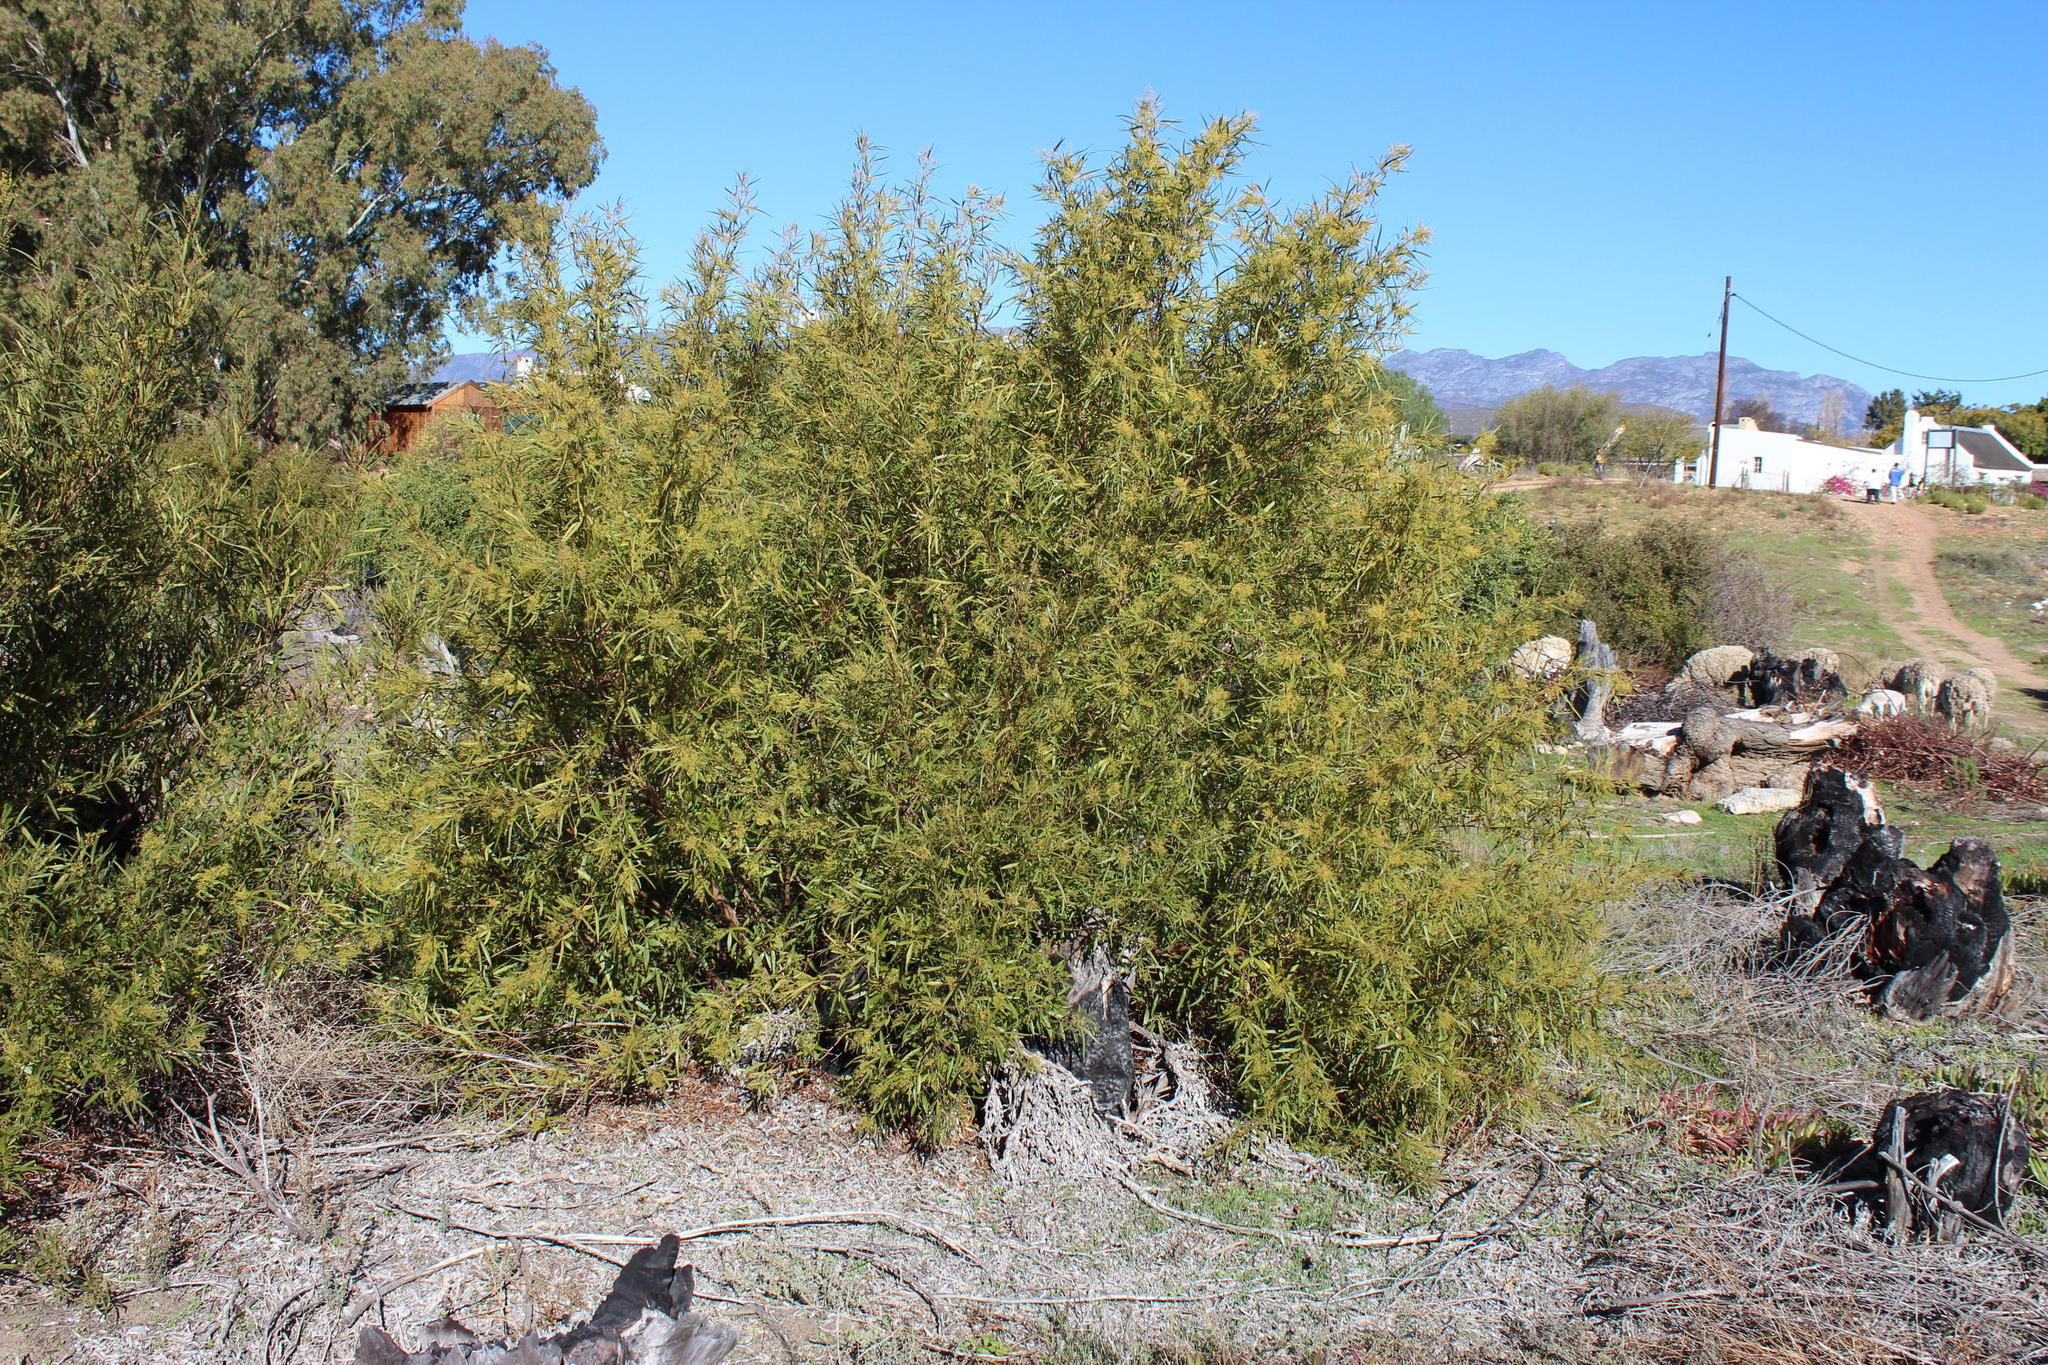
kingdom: Plantae
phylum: Tracheophyta
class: Magnoliopsida
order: Sapindales
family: Anacardiaceae
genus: Searsia
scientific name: Searsia lancea
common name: Cashew
